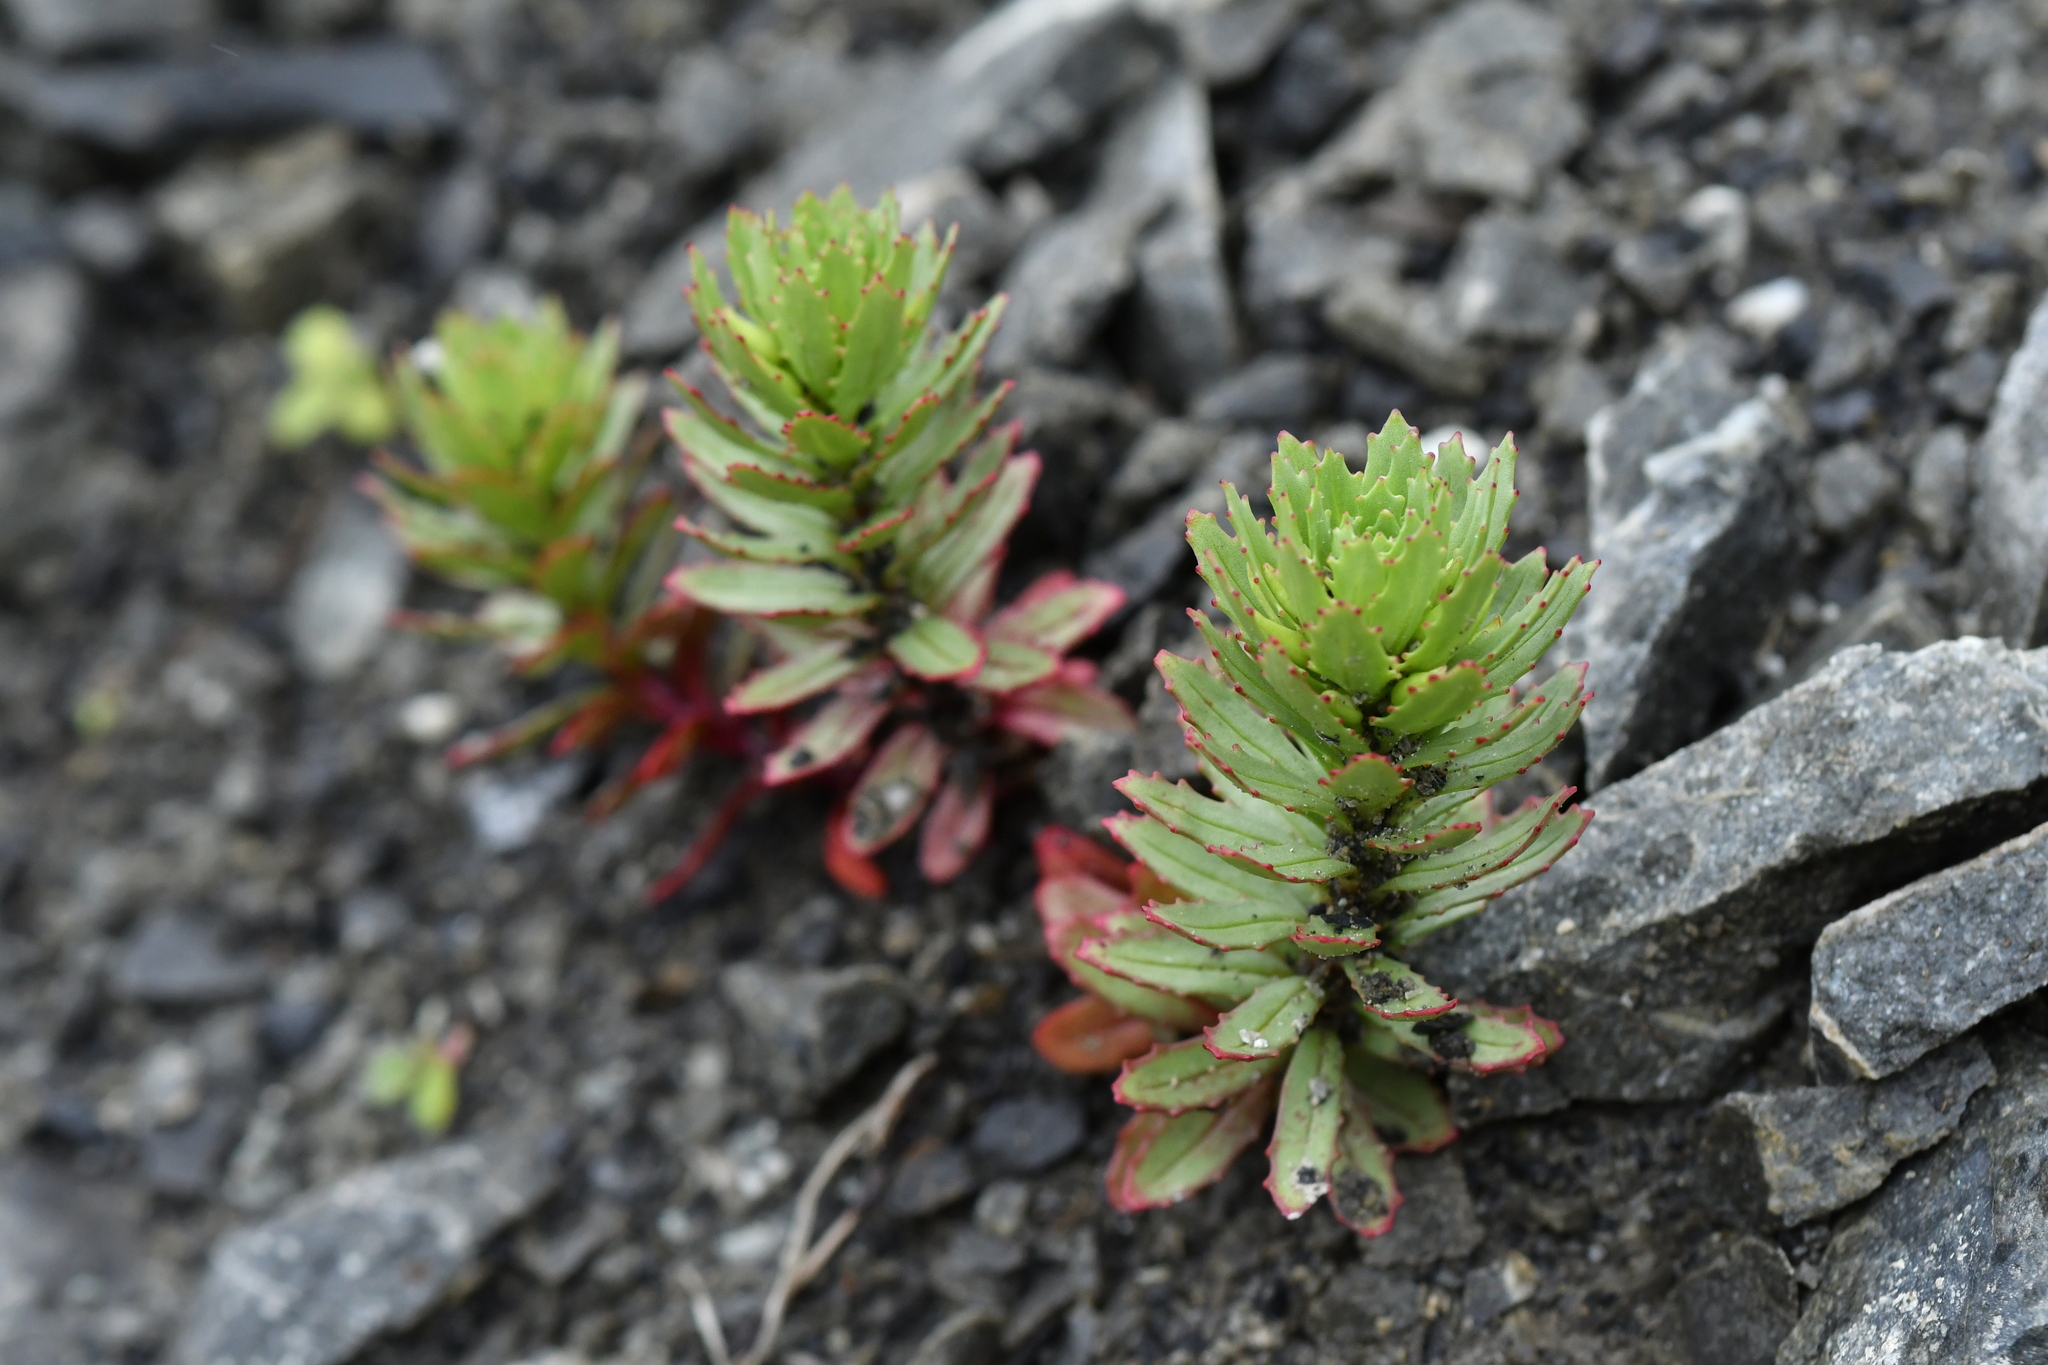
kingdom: Plantae
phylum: Tracheophyta
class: Magnoliopsida
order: Myrtales
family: Onagraceae
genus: Epilobium
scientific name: Epilobium pycnostachyum
